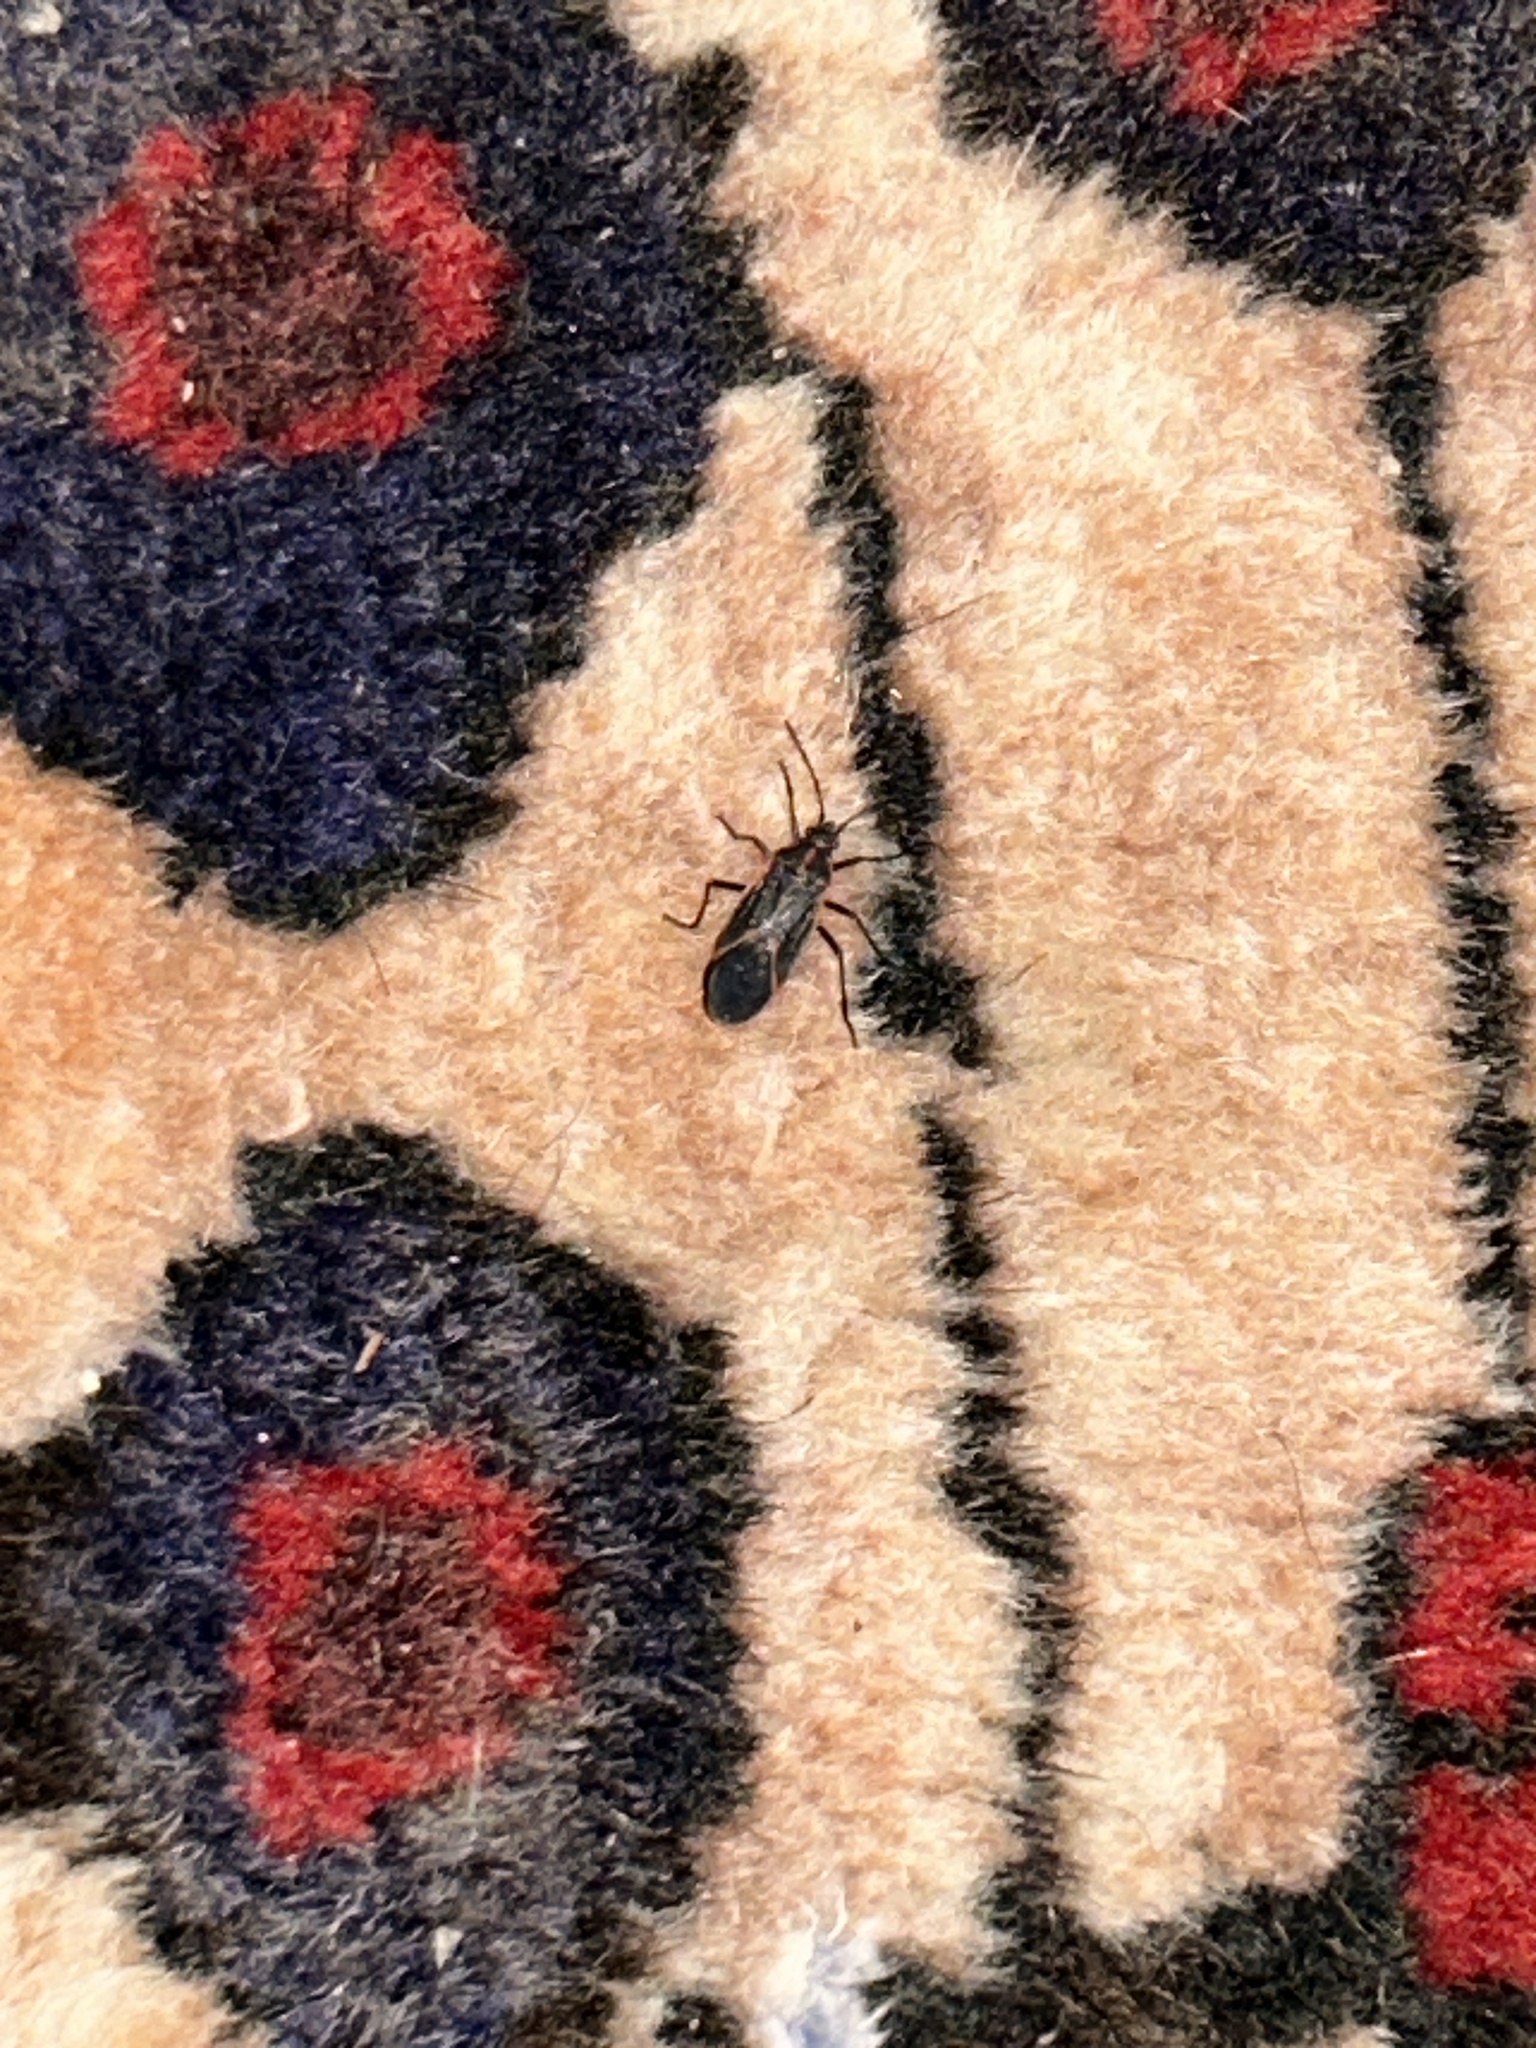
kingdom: Animalia
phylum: Arthropoda
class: Insecta
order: Hemiptera
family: Rhopalidae
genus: Boisea
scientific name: Boisea trivittata
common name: Boxelder bug
